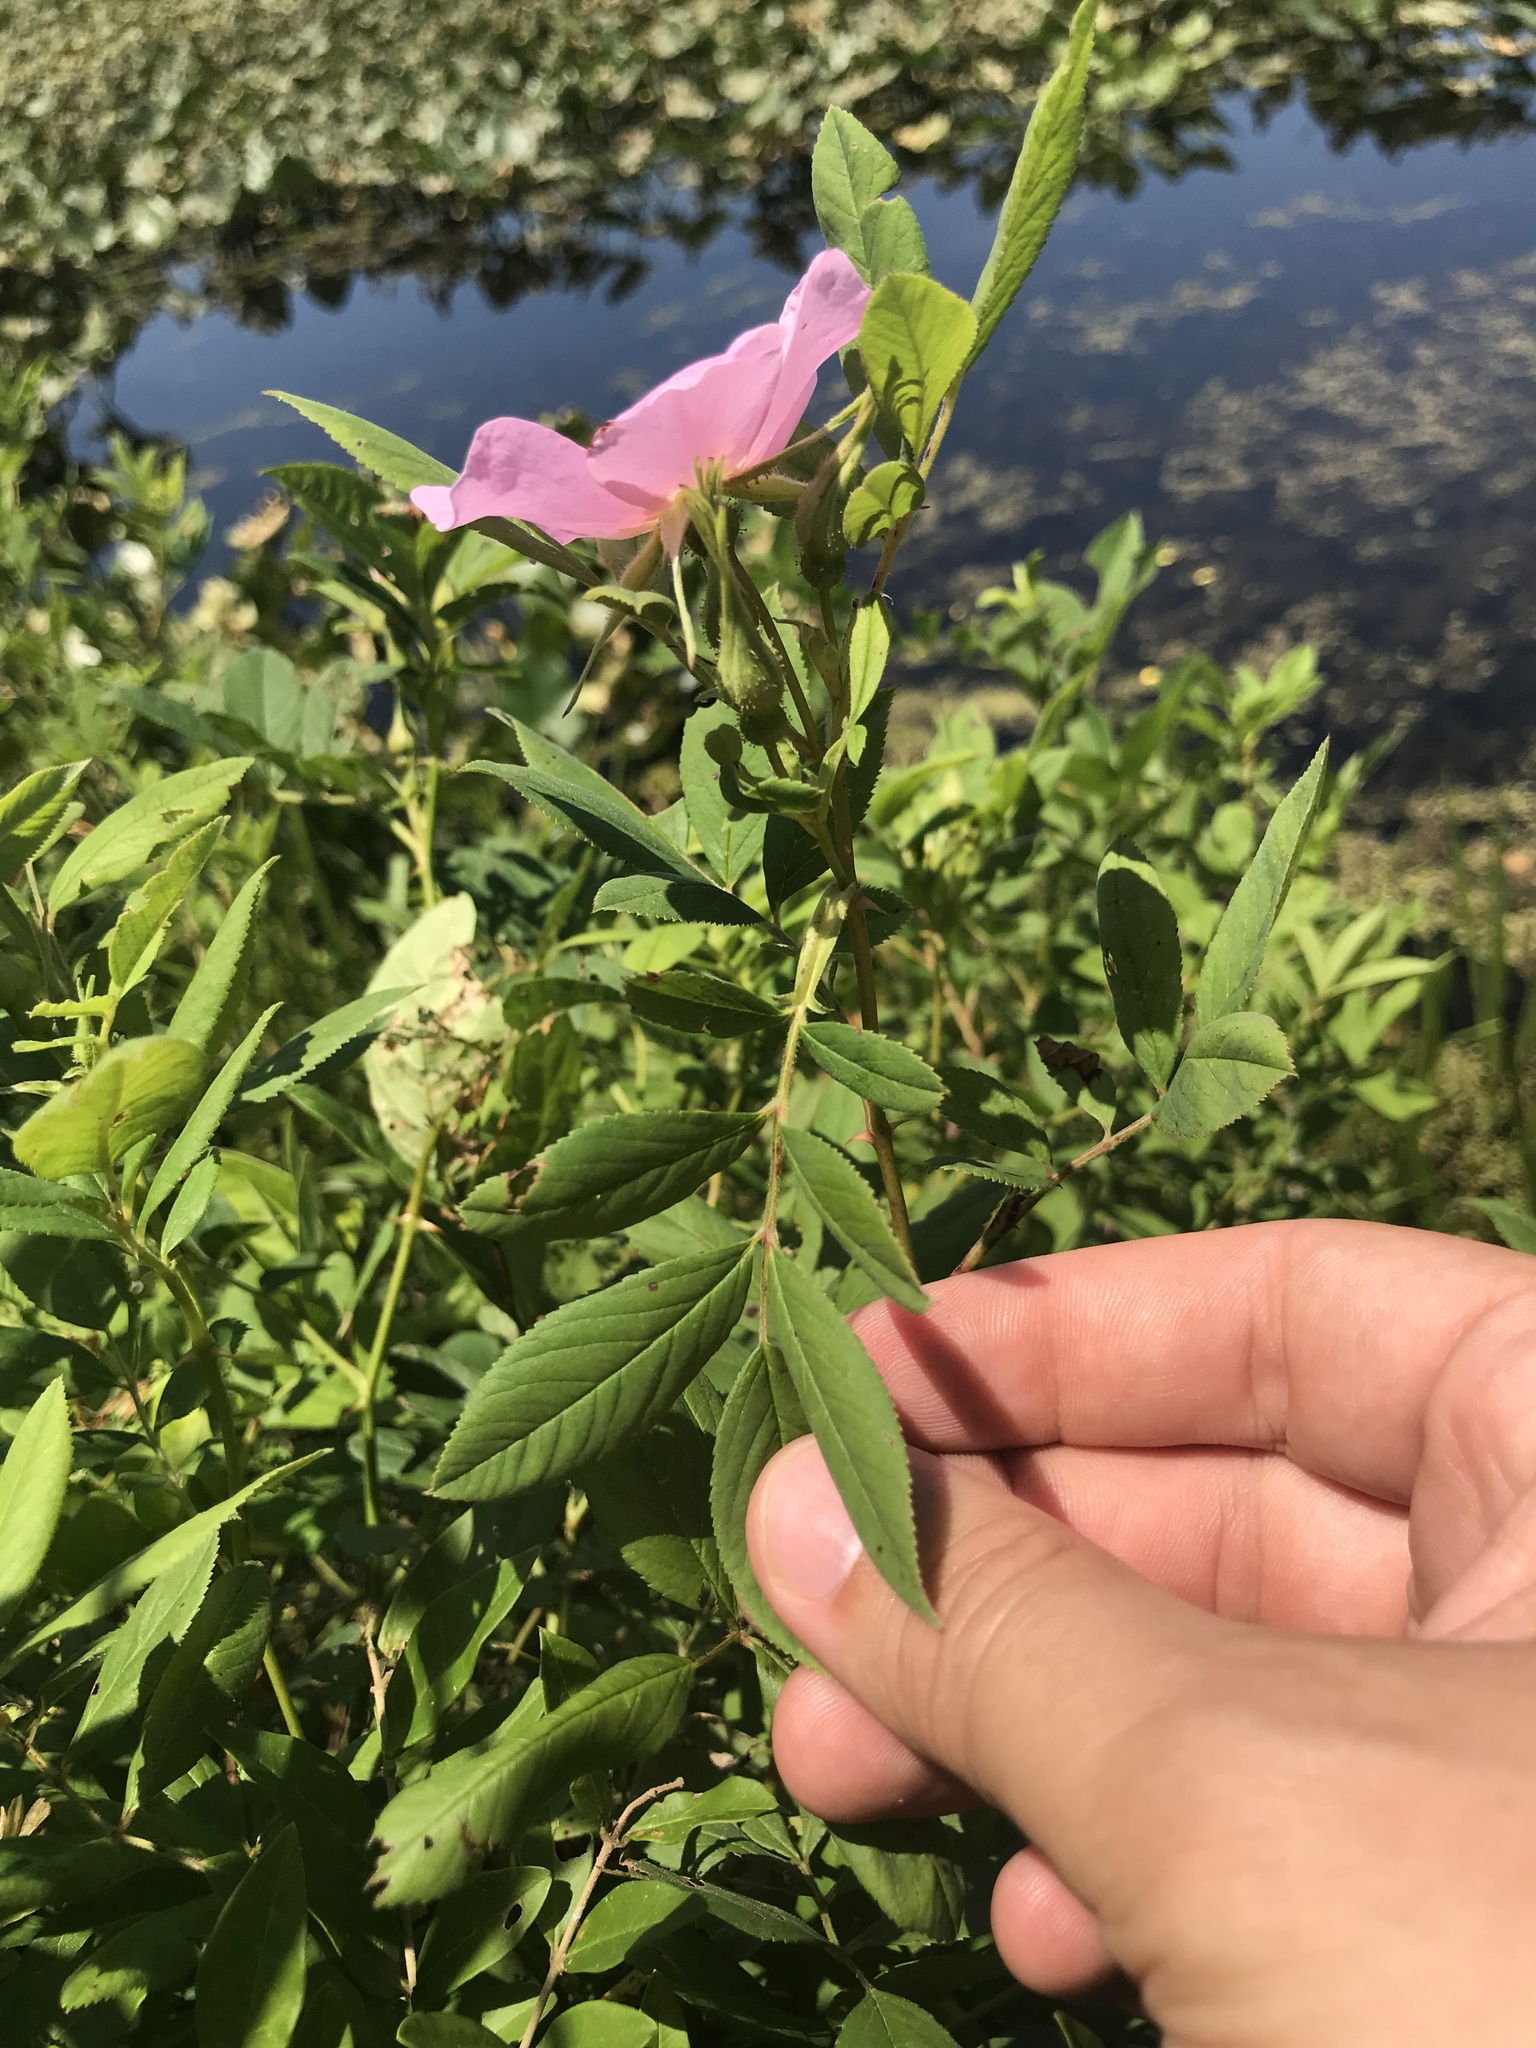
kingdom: Plantae
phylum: Tracheophyta
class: Magnoliopsida
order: Rosales
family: Rosaceae
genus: Rosa
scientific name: Rosa palustris
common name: Swamp rose
